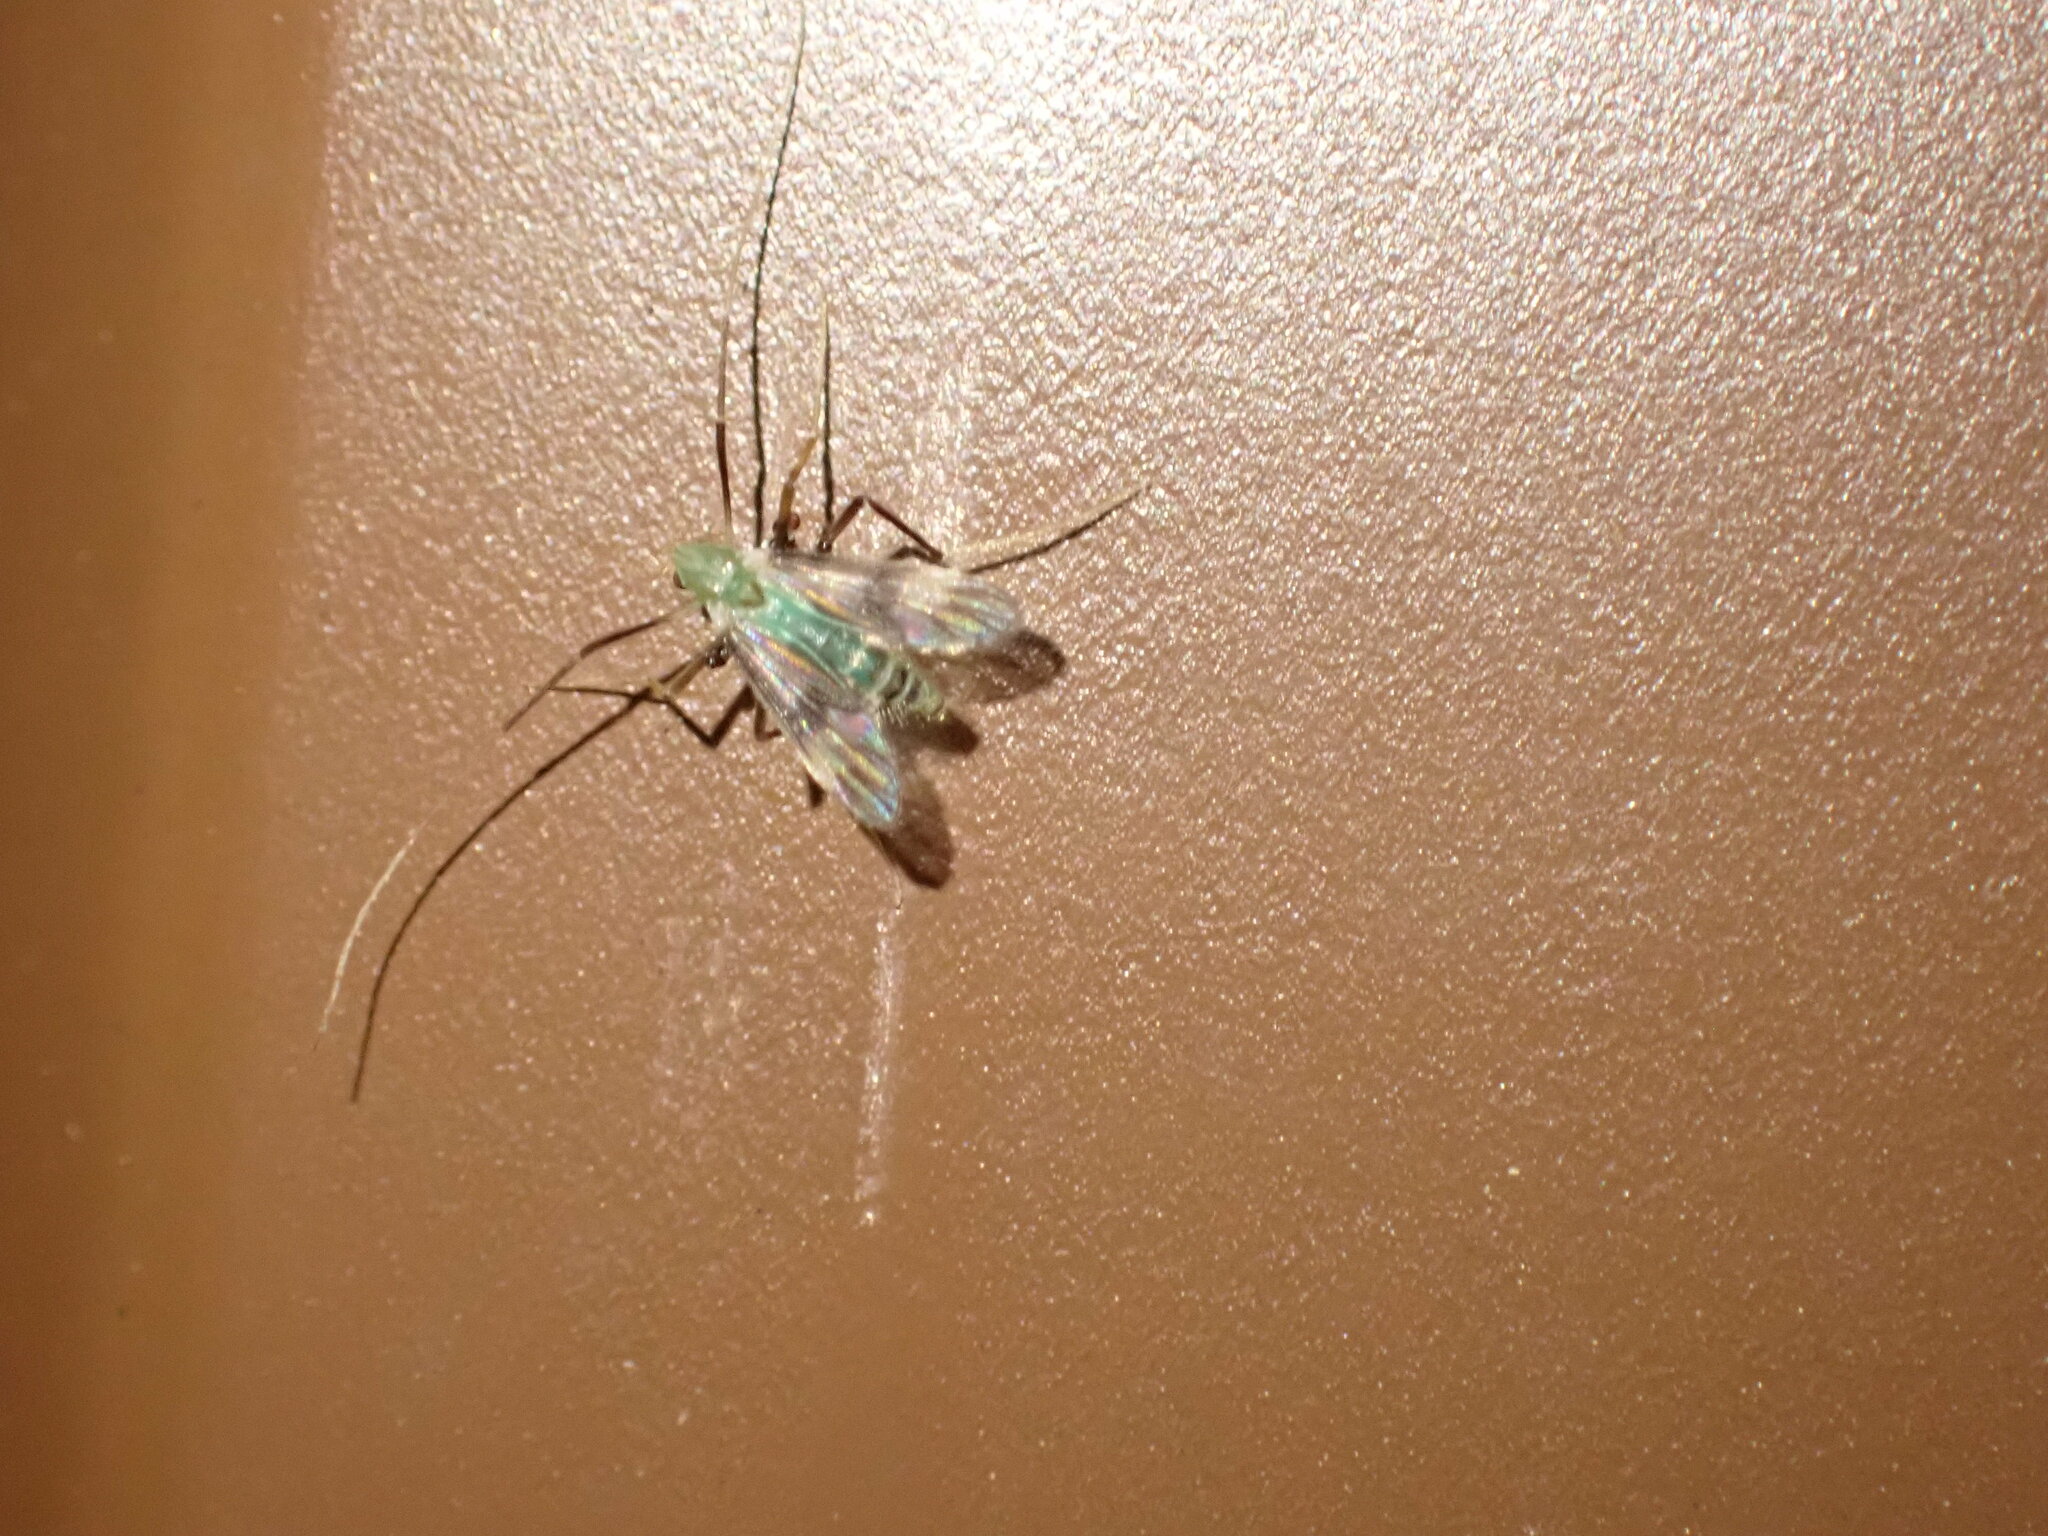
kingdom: Animalia
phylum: Arthropoda
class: Insecta
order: Diptera
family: Chironomidae
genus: Stenochironomus
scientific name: Stenochironomus hilaris
